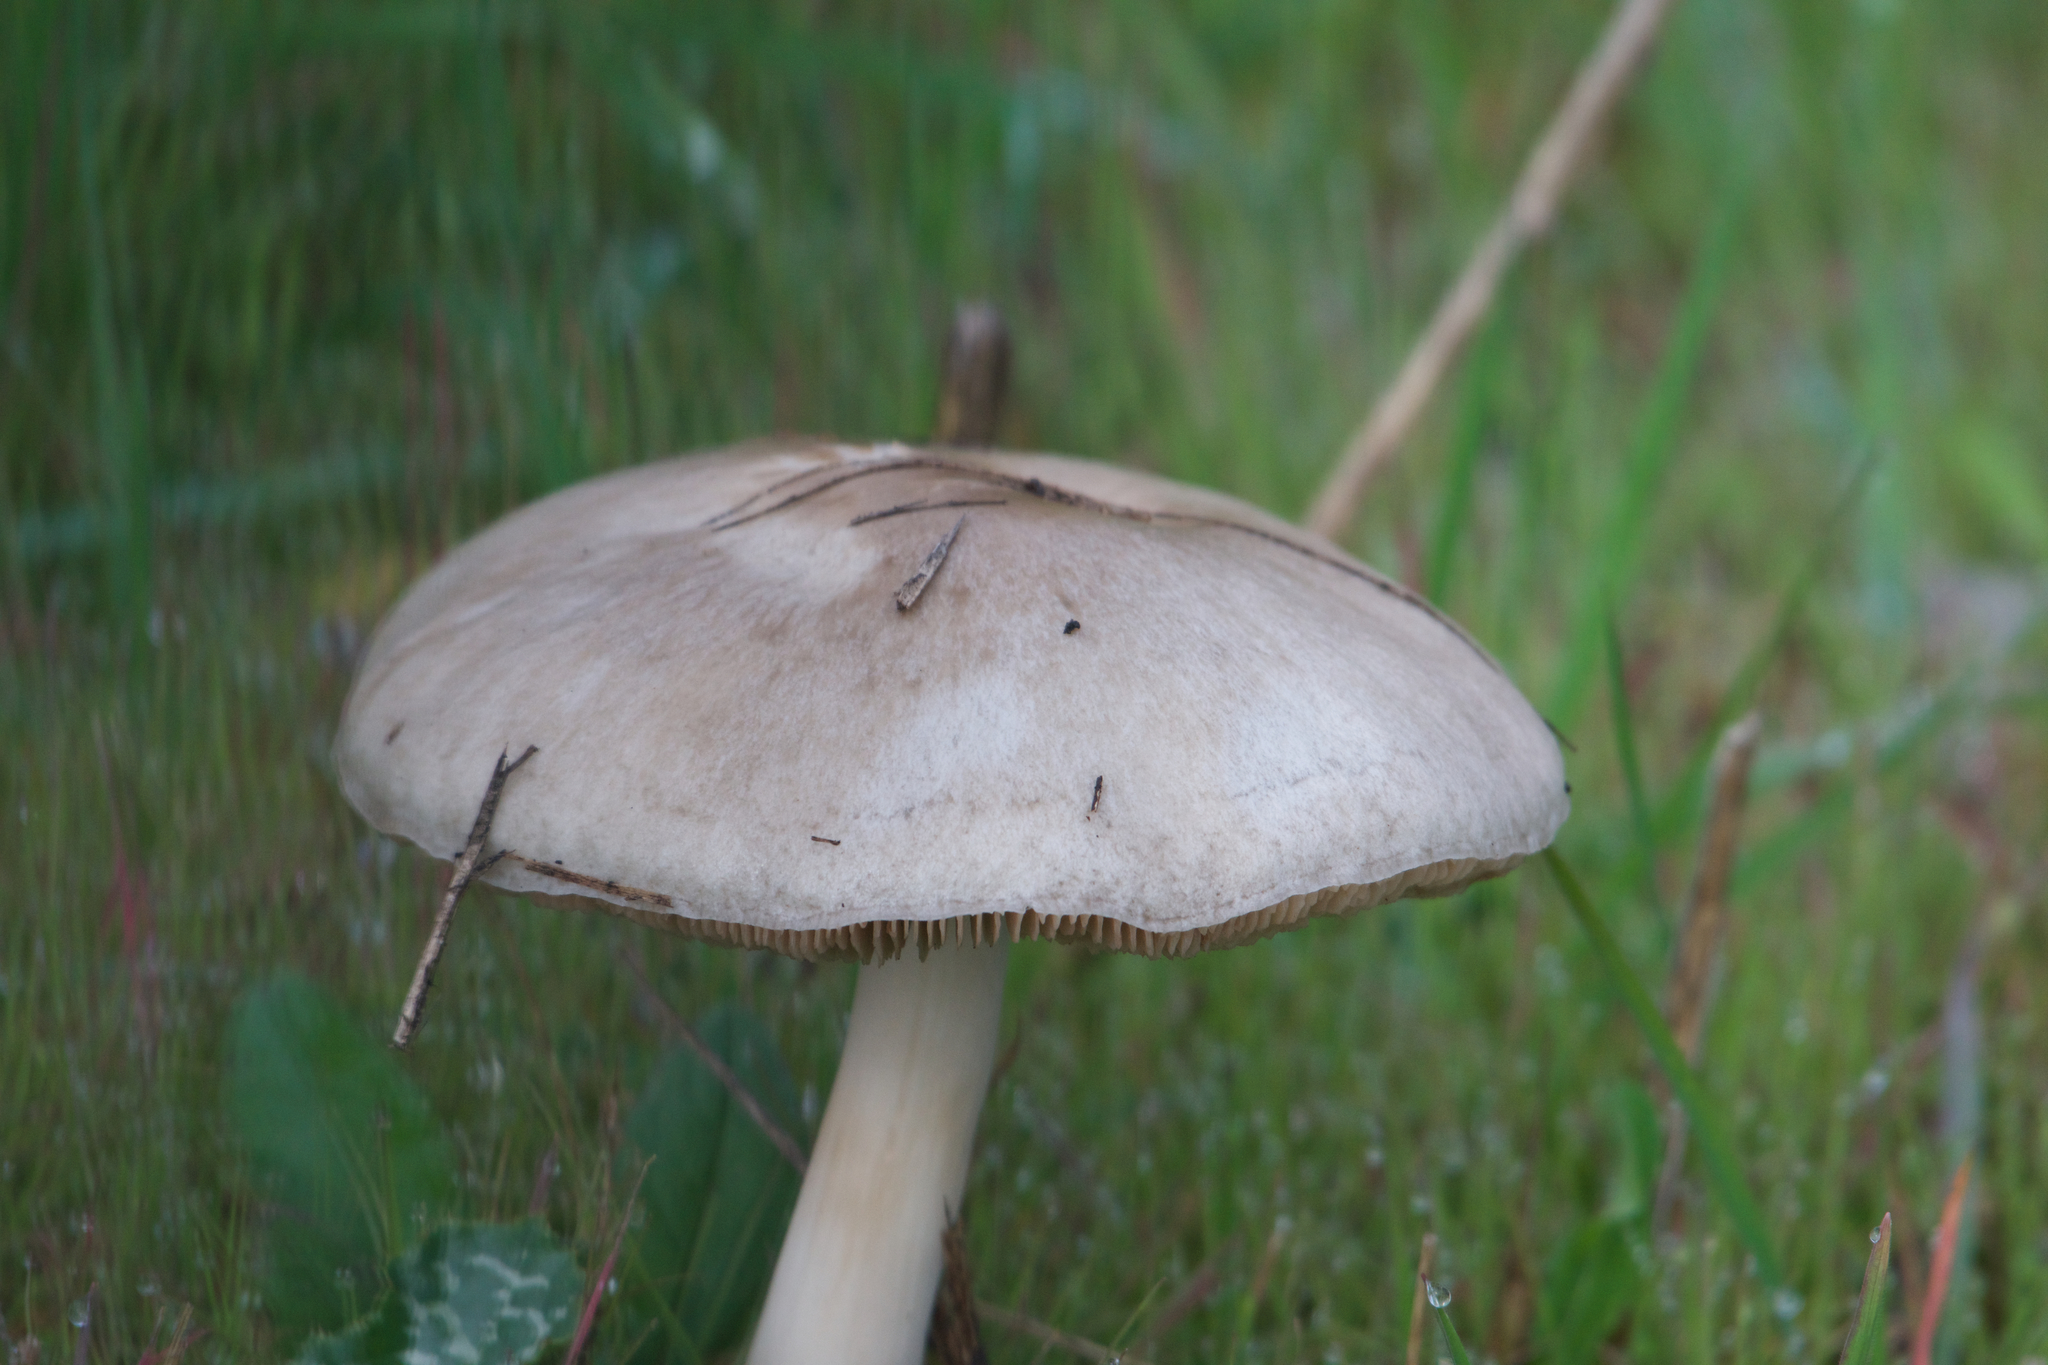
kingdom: Fungi
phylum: Basidiomycota
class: Agaricomycetes
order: Agaricales
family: Pluteaceae
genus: Volvopluteus
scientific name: Volvopluteus gloiocephalus
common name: Stubble rosegill
